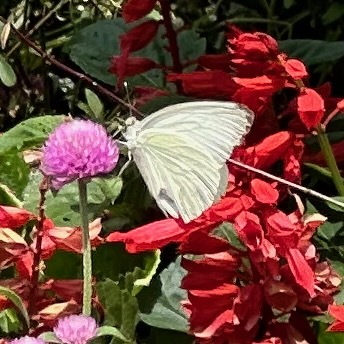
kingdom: Animalia
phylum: Arthropoda
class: Insecta
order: Lepidoptera
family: Pieridae
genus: Ascia
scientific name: Ascia monuste
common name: Great southern white
